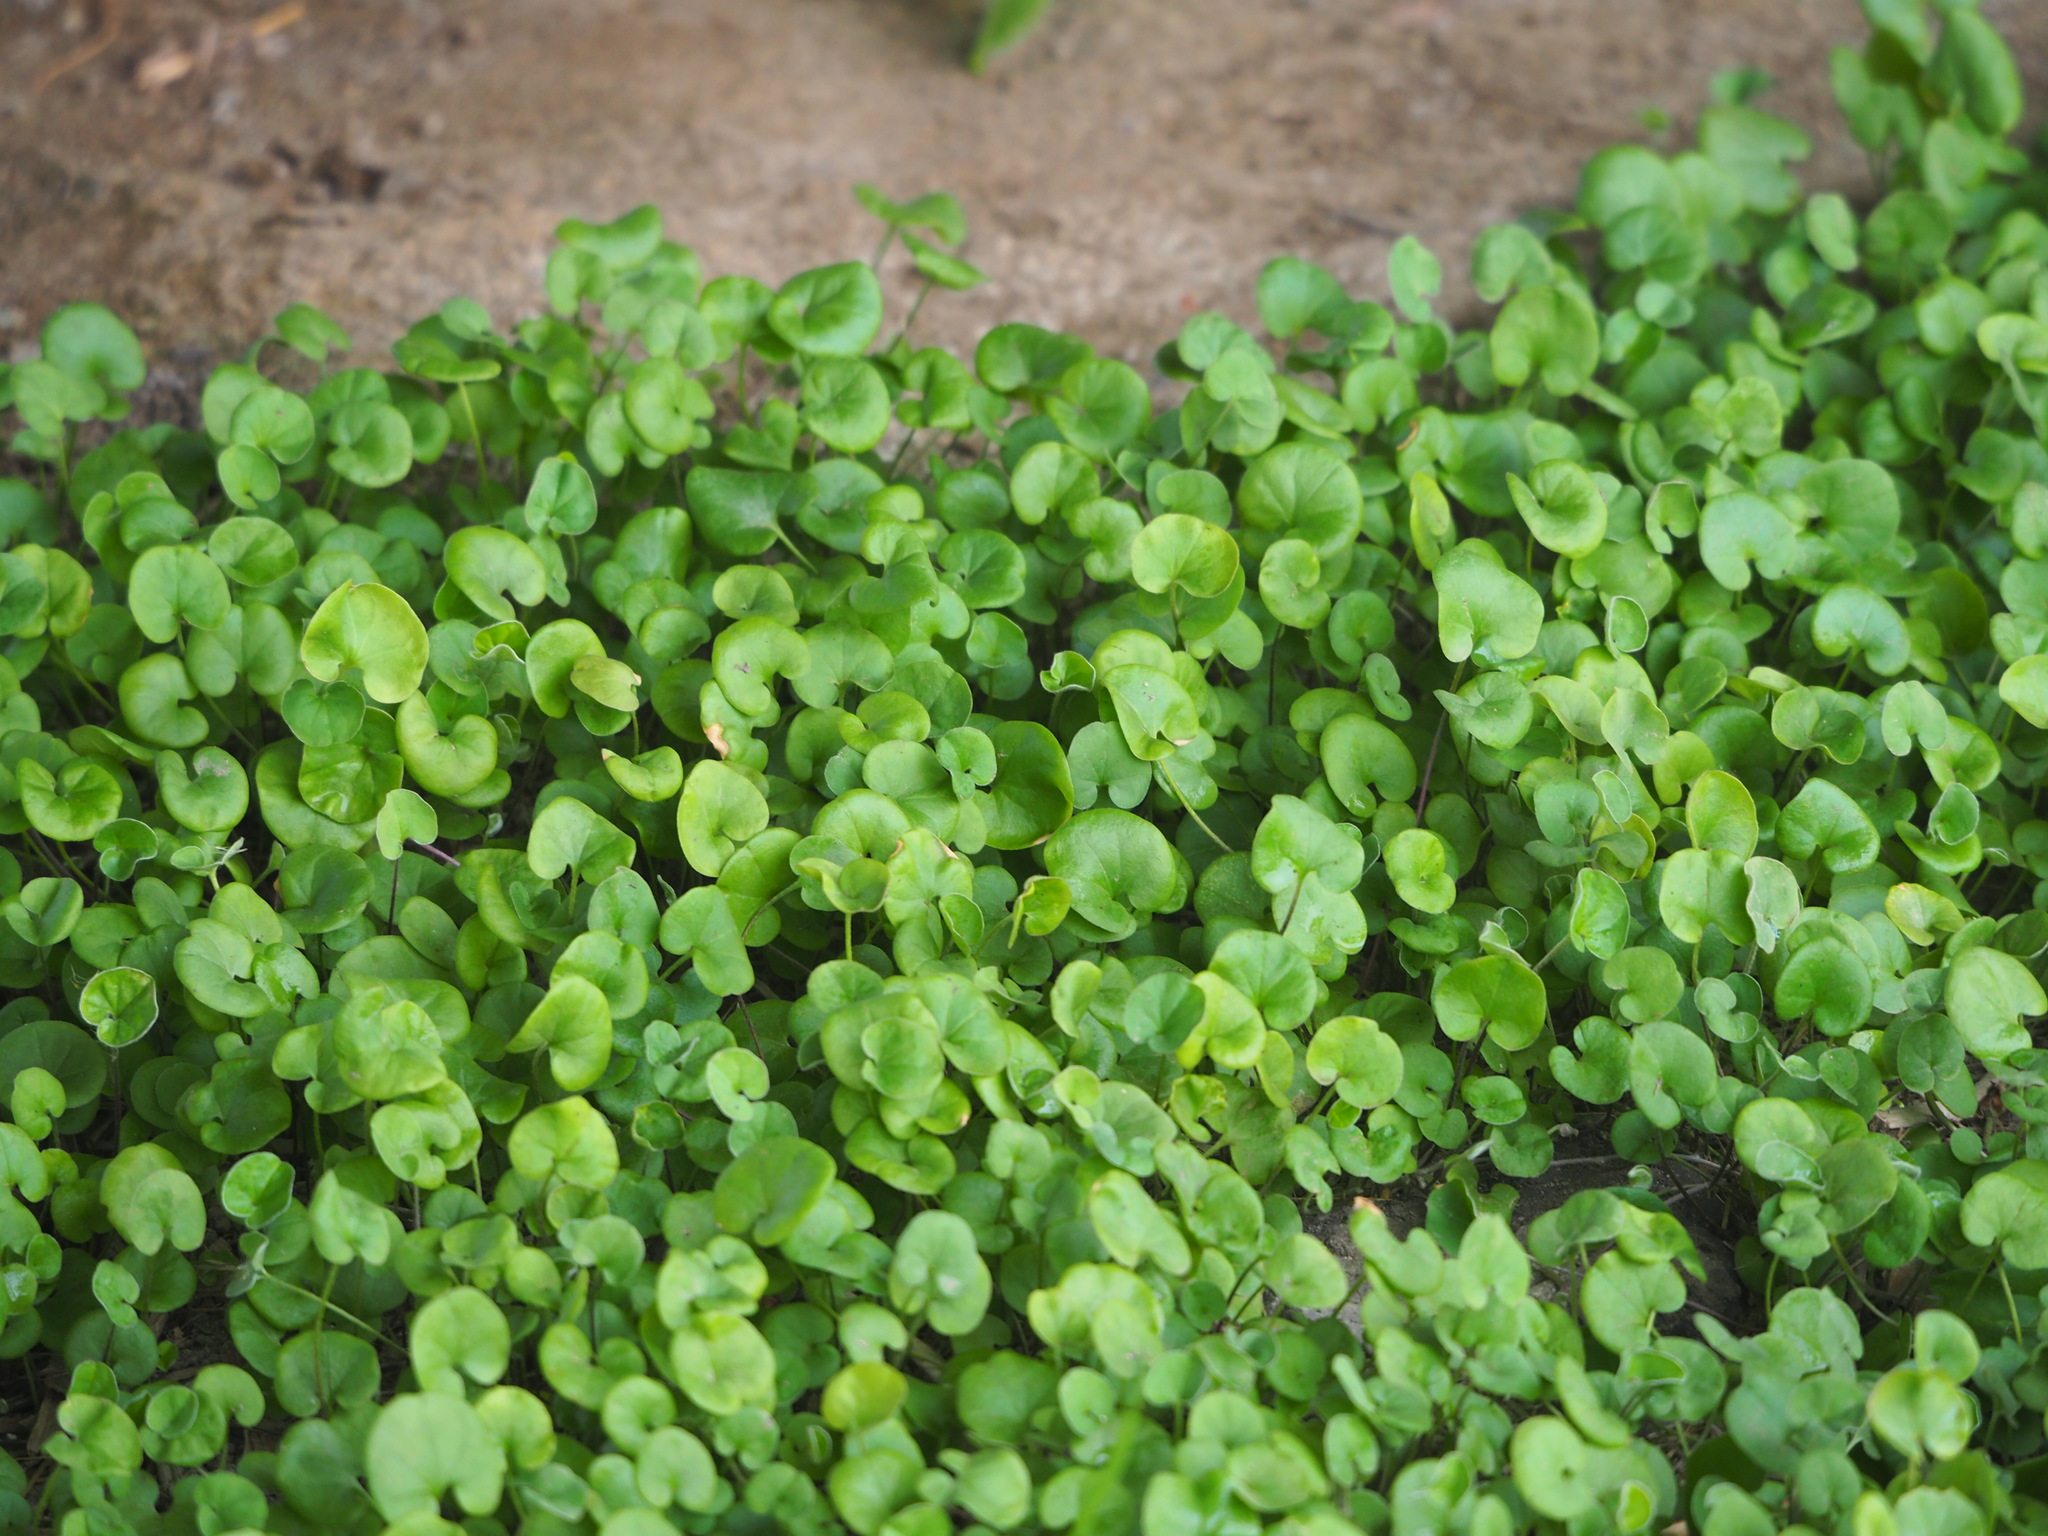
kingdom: Plantae
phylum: Tracheophyta
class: Magnoliopsida
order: Solanales
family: Convolvulaceae
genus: Dichondra
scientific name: Dichondra micrantha
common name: Kidneyweed
